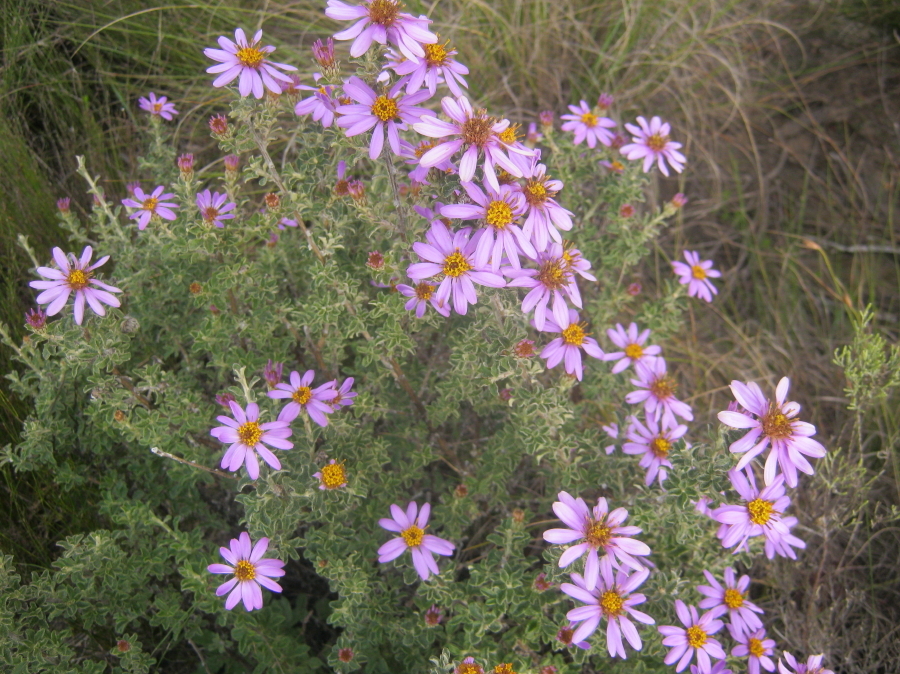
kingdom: Plantae
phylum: Tracheophyta
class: Magnoliopsida
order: Asterales
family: Asteraceae
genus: Printzia
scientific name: Printzia polifolia
